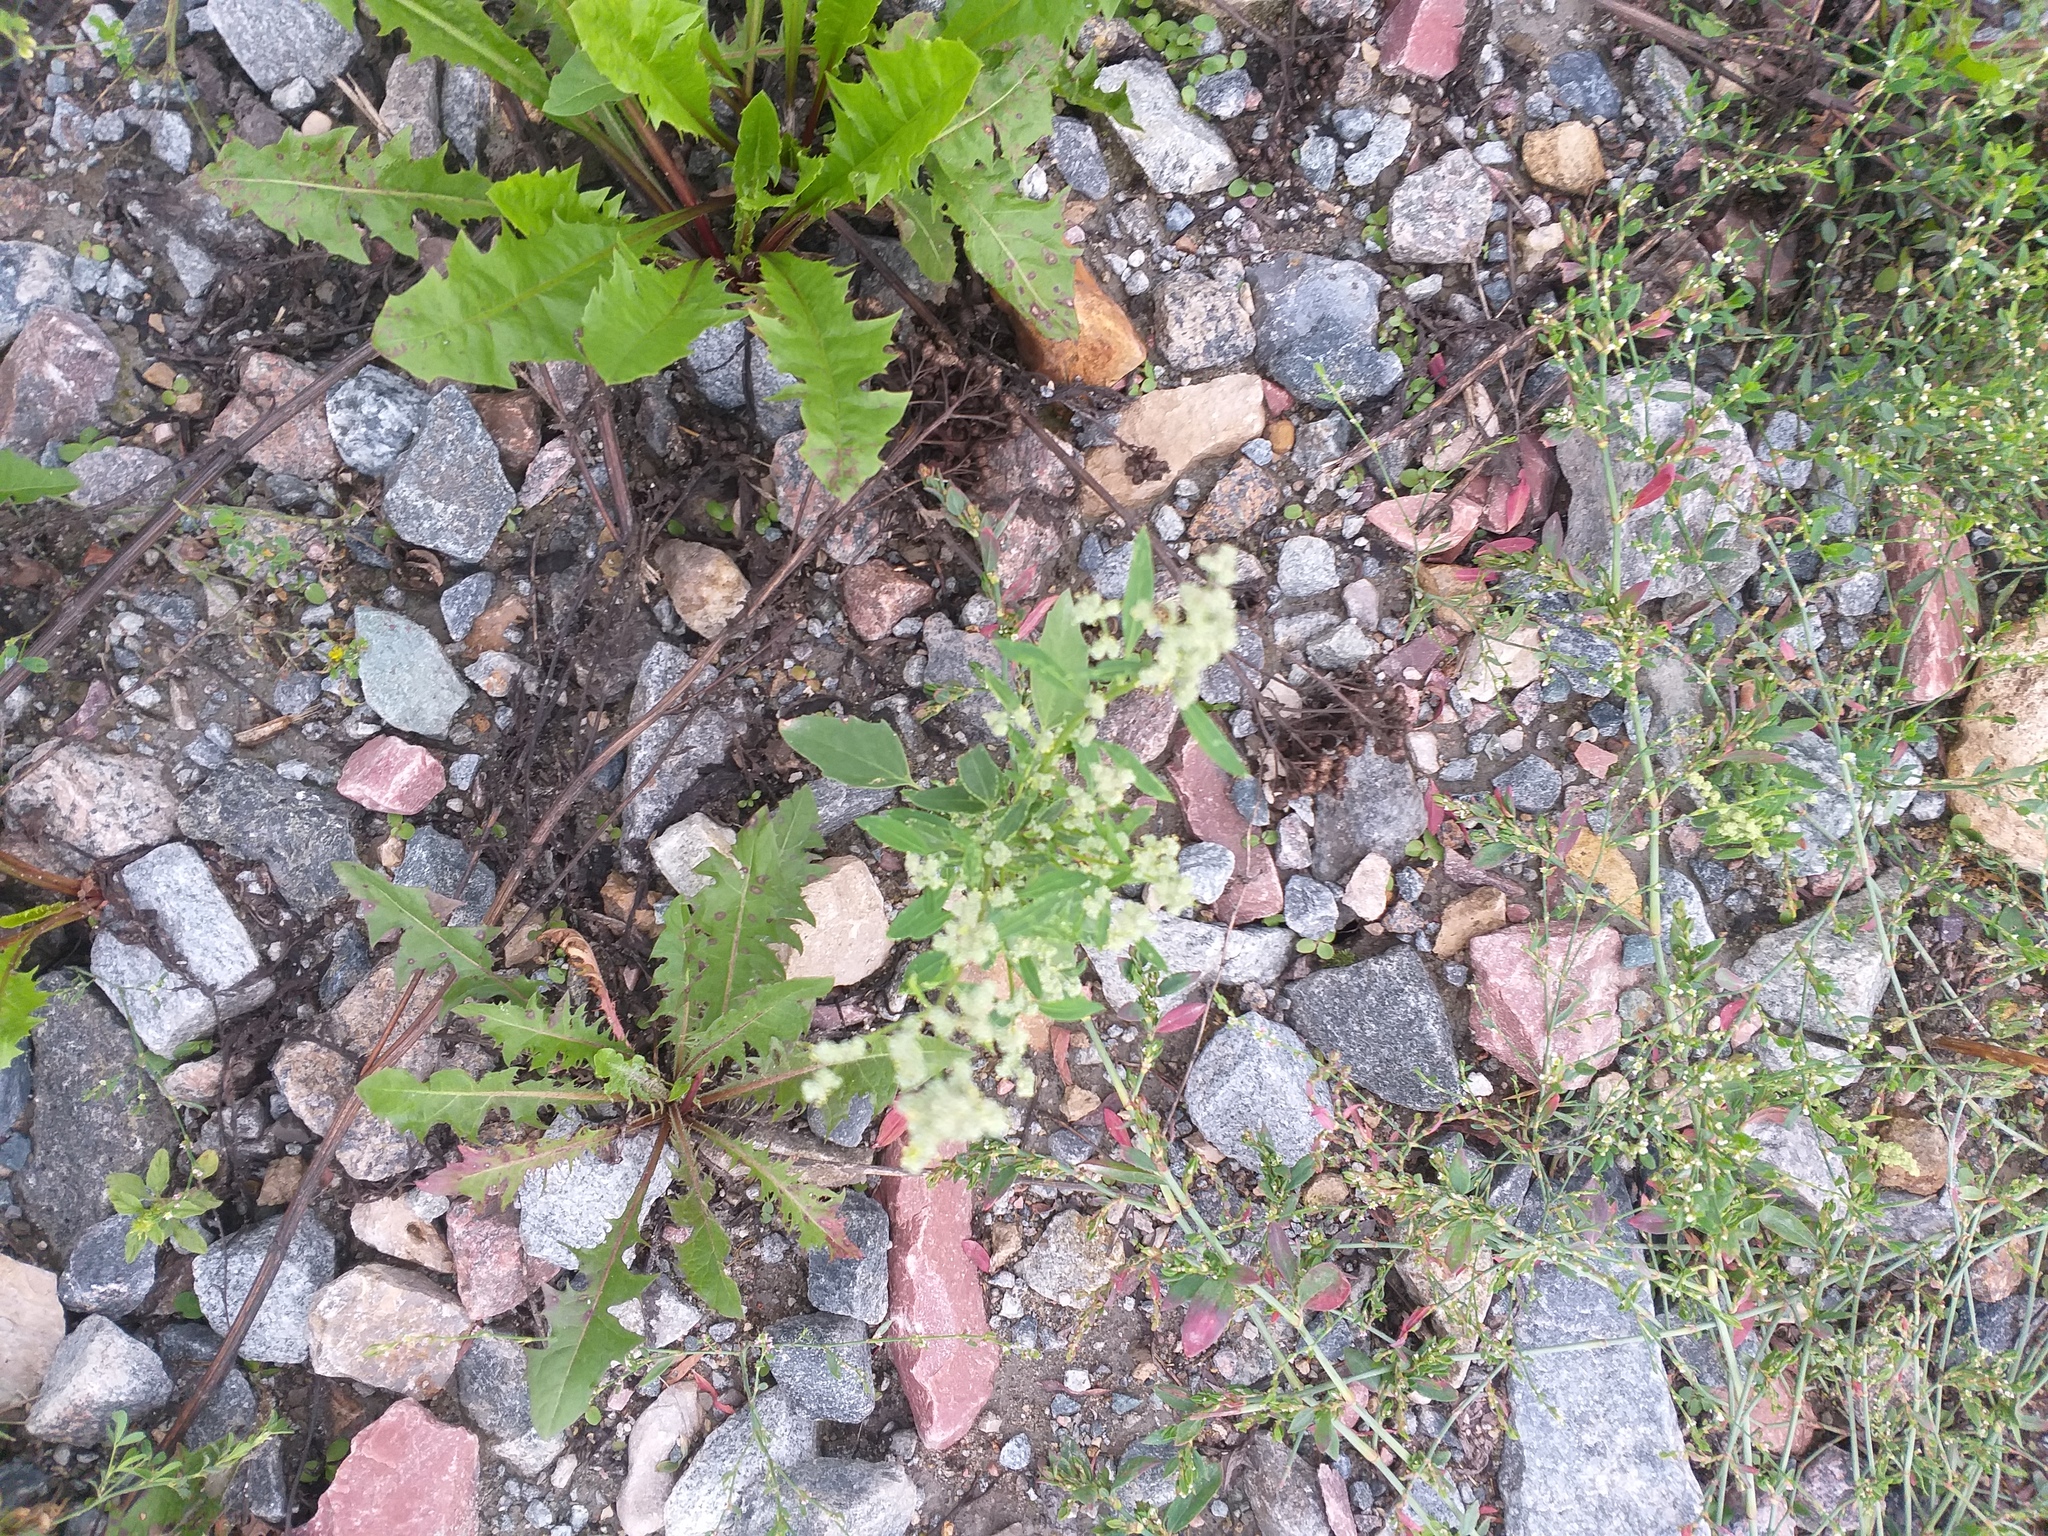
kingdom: Plantae
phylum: Tracheophyta
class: Magnoliopsida
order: Caryophyllales
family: Amaranthaceae
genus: Chenopodium
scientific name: Chenopodium album
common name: Fat-hen
